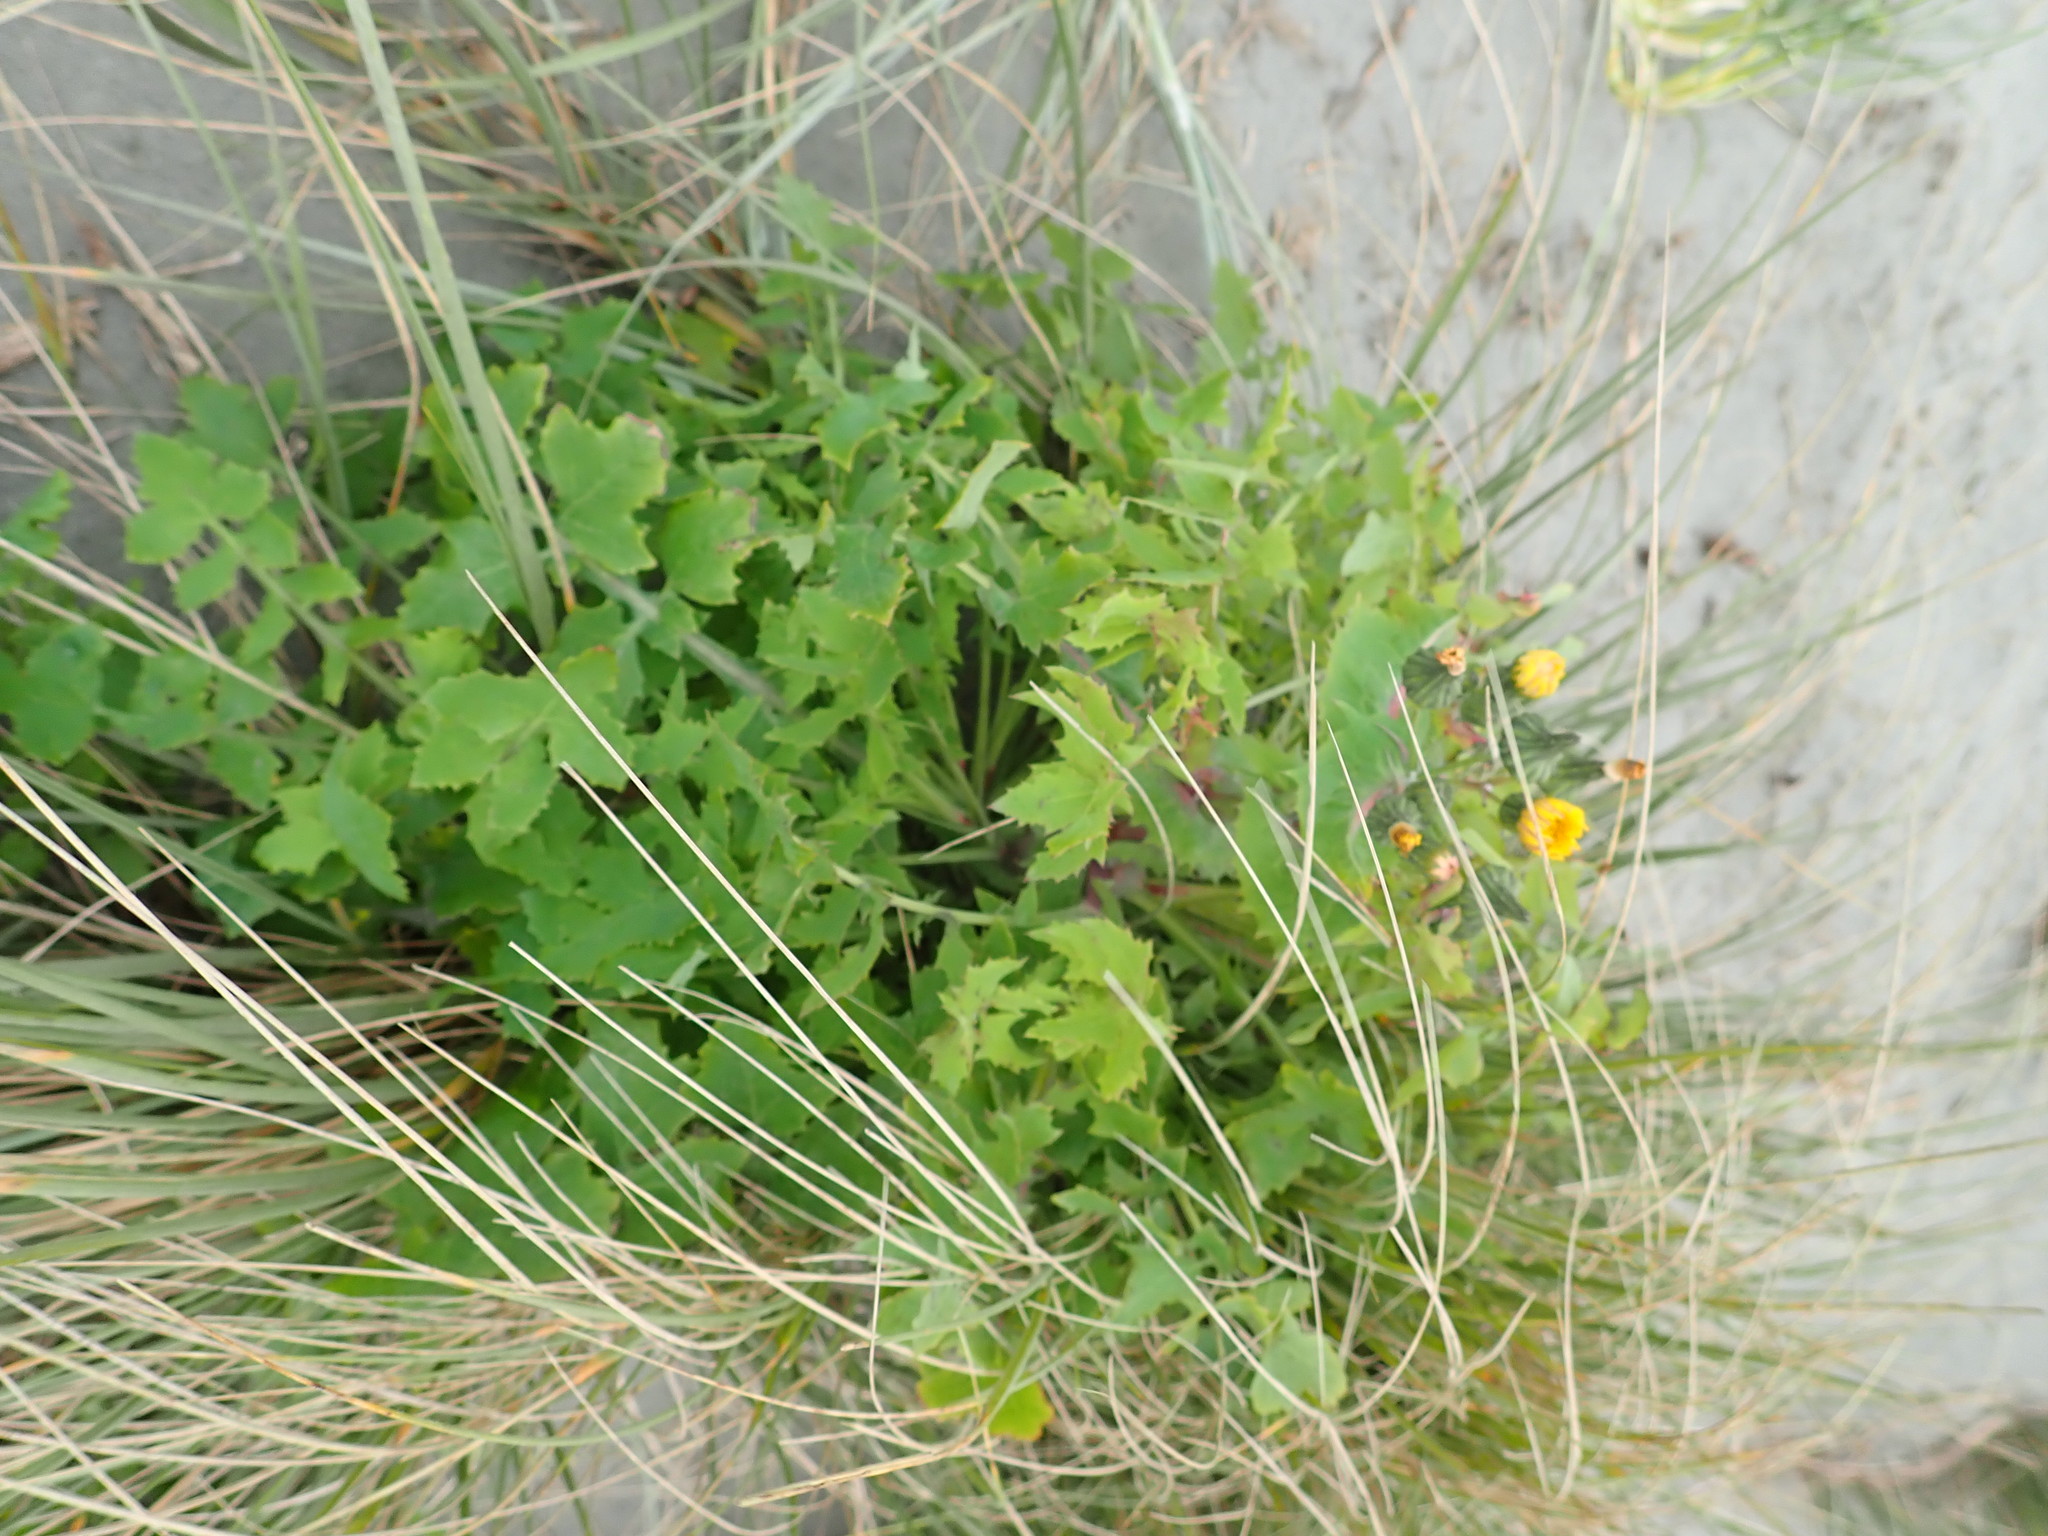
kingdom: Plantae
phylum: Tracheophyta
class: Magnoliopsida
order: Asterales
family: Asteraceae
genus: Sonchus
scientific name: Sonchus oleraceus
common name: Common sowthistle
